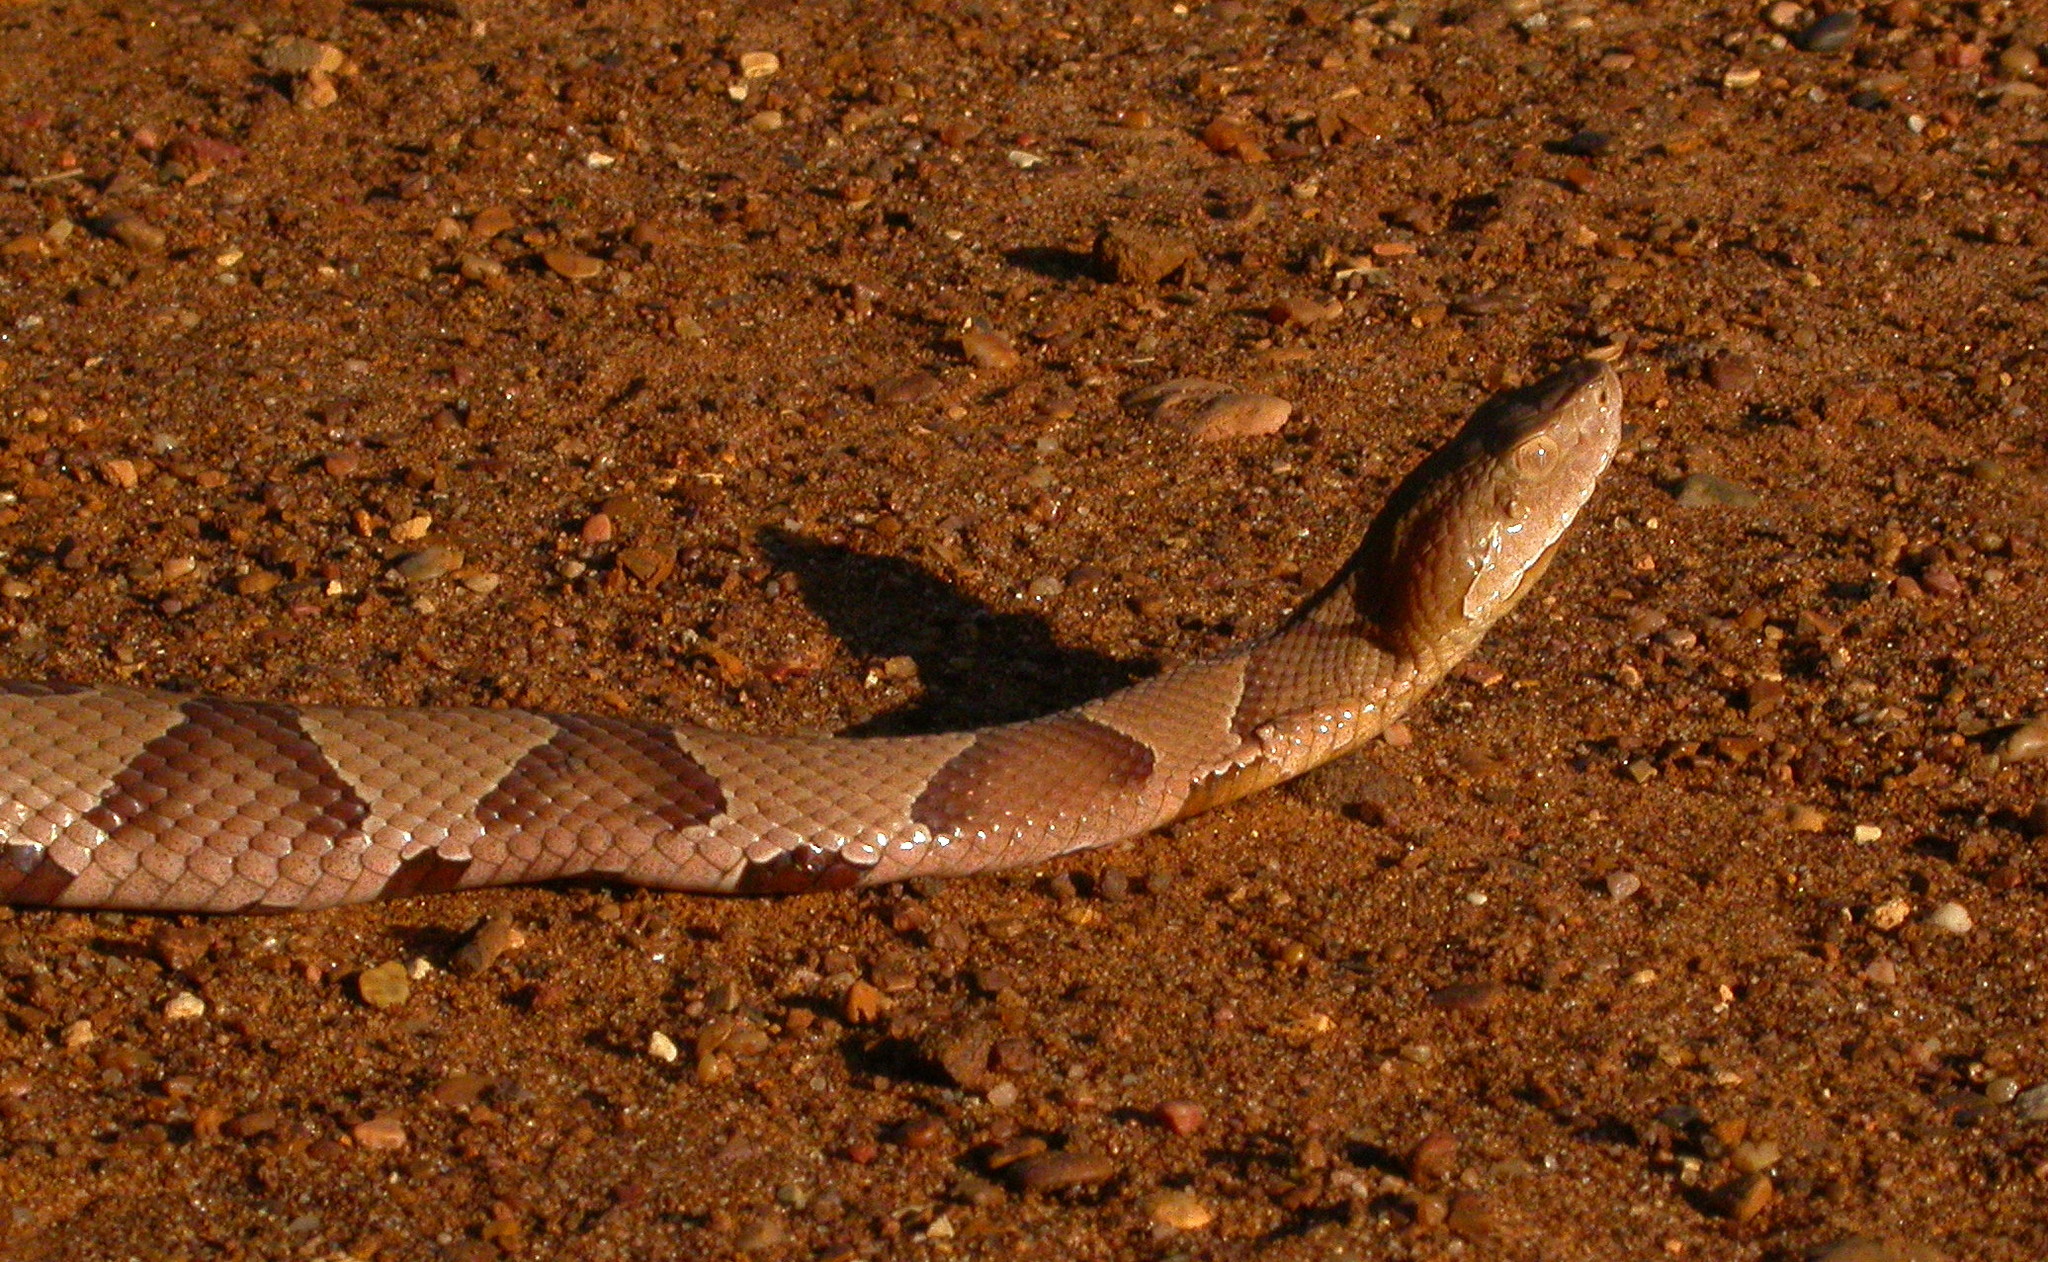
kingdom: Animalia
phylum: Chordata
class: Squamata
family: Viperidae
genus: Agkistrodon
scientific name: Agkistrodon contortrix
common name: Northern copperhead
